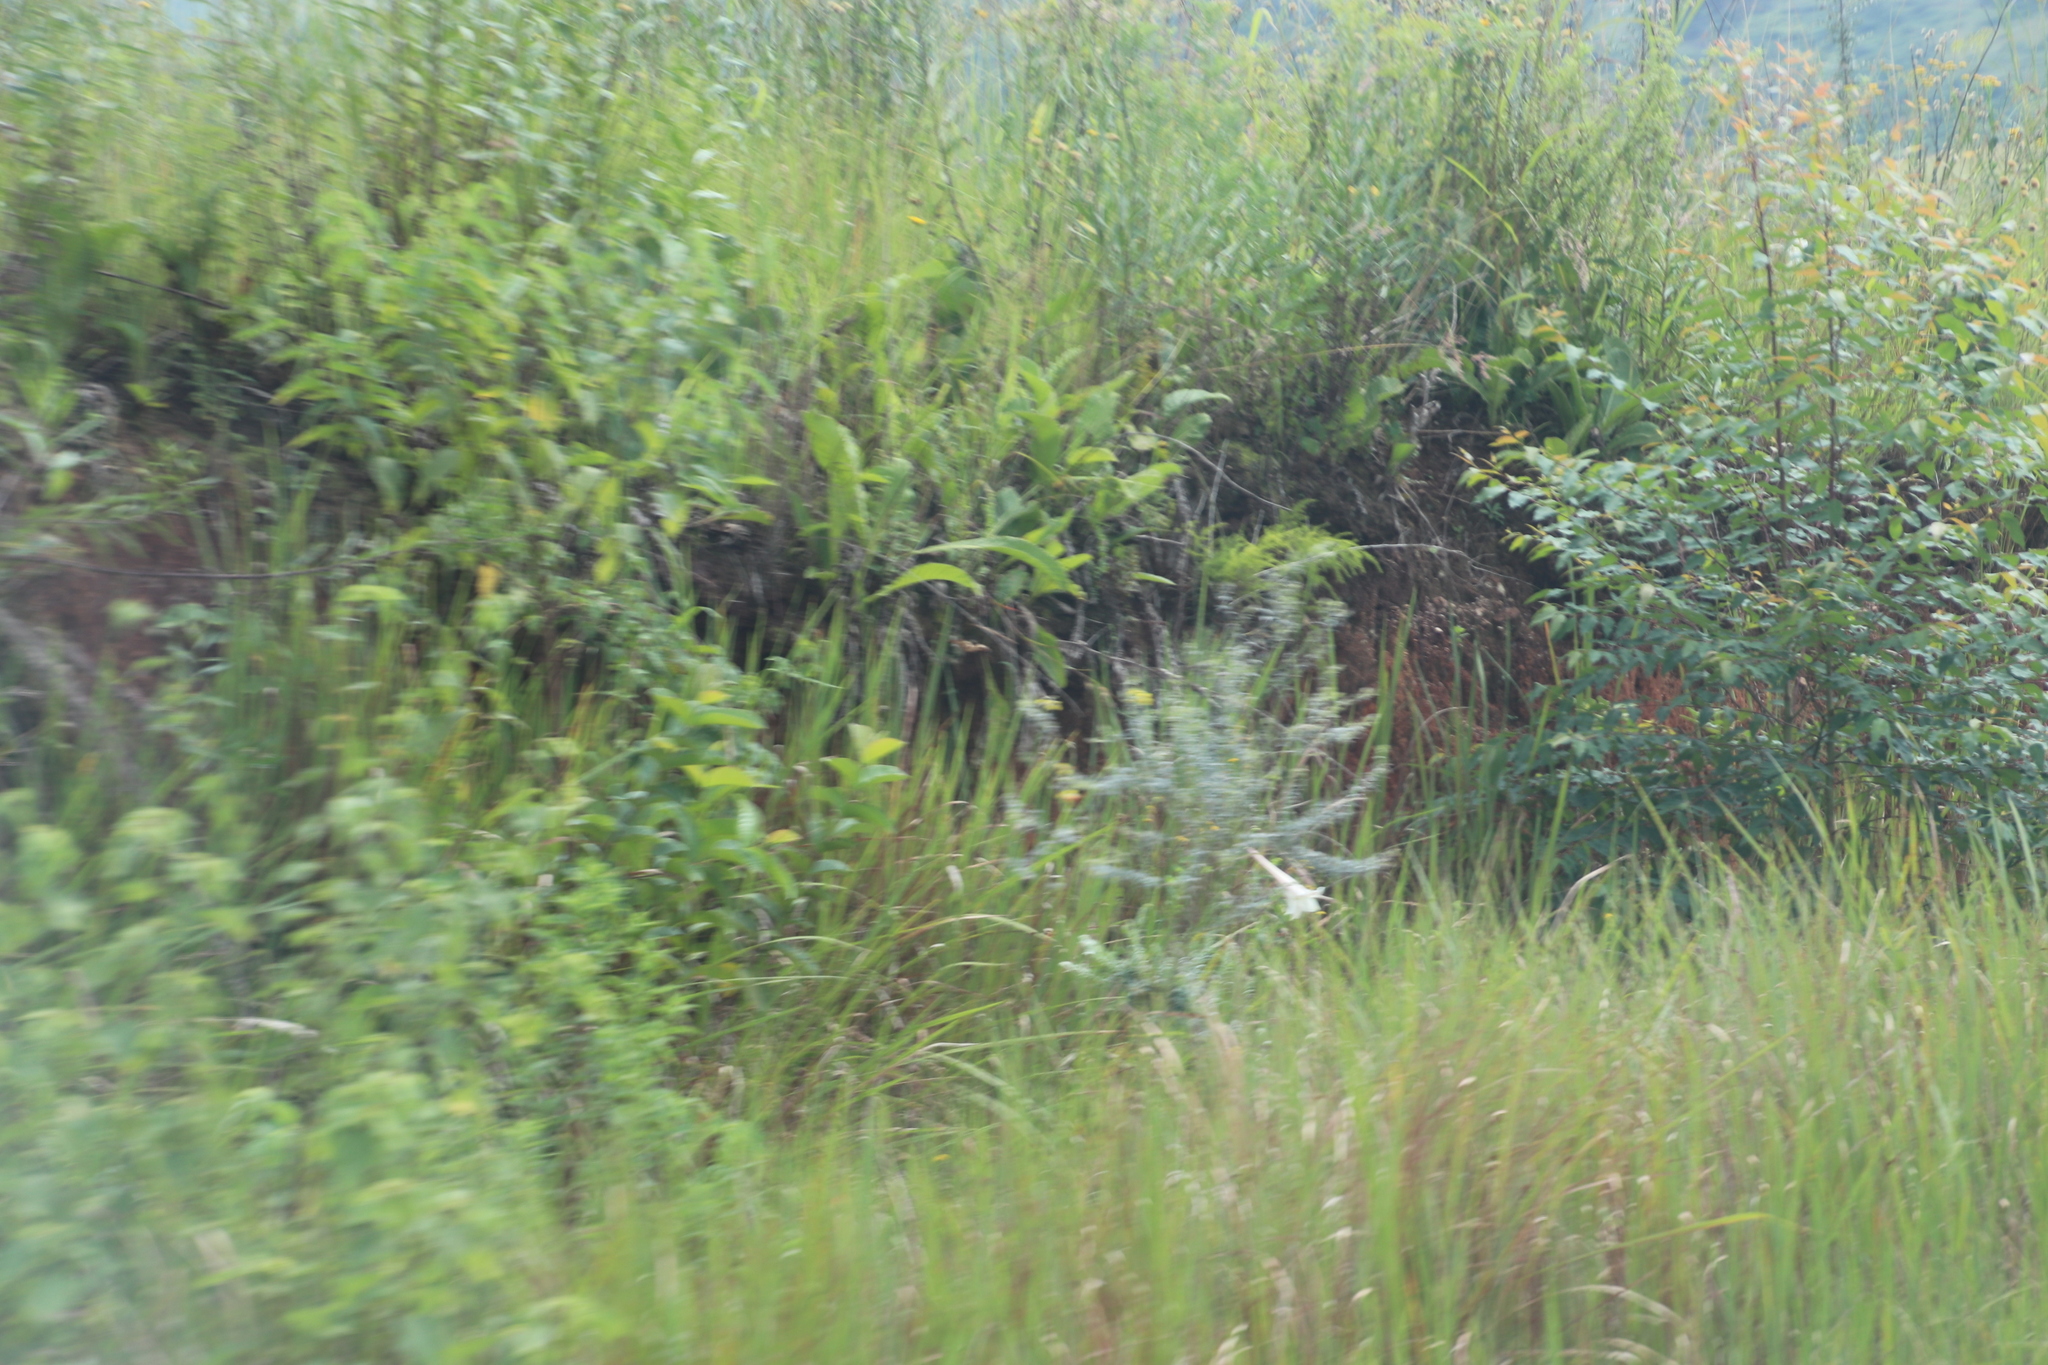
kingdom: Plantae
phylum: Tracheophyta
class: Liliopsida
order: Liliales
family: Liliaceae
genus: Lilium
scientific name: Lilium formosanum
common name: Formosa lily
